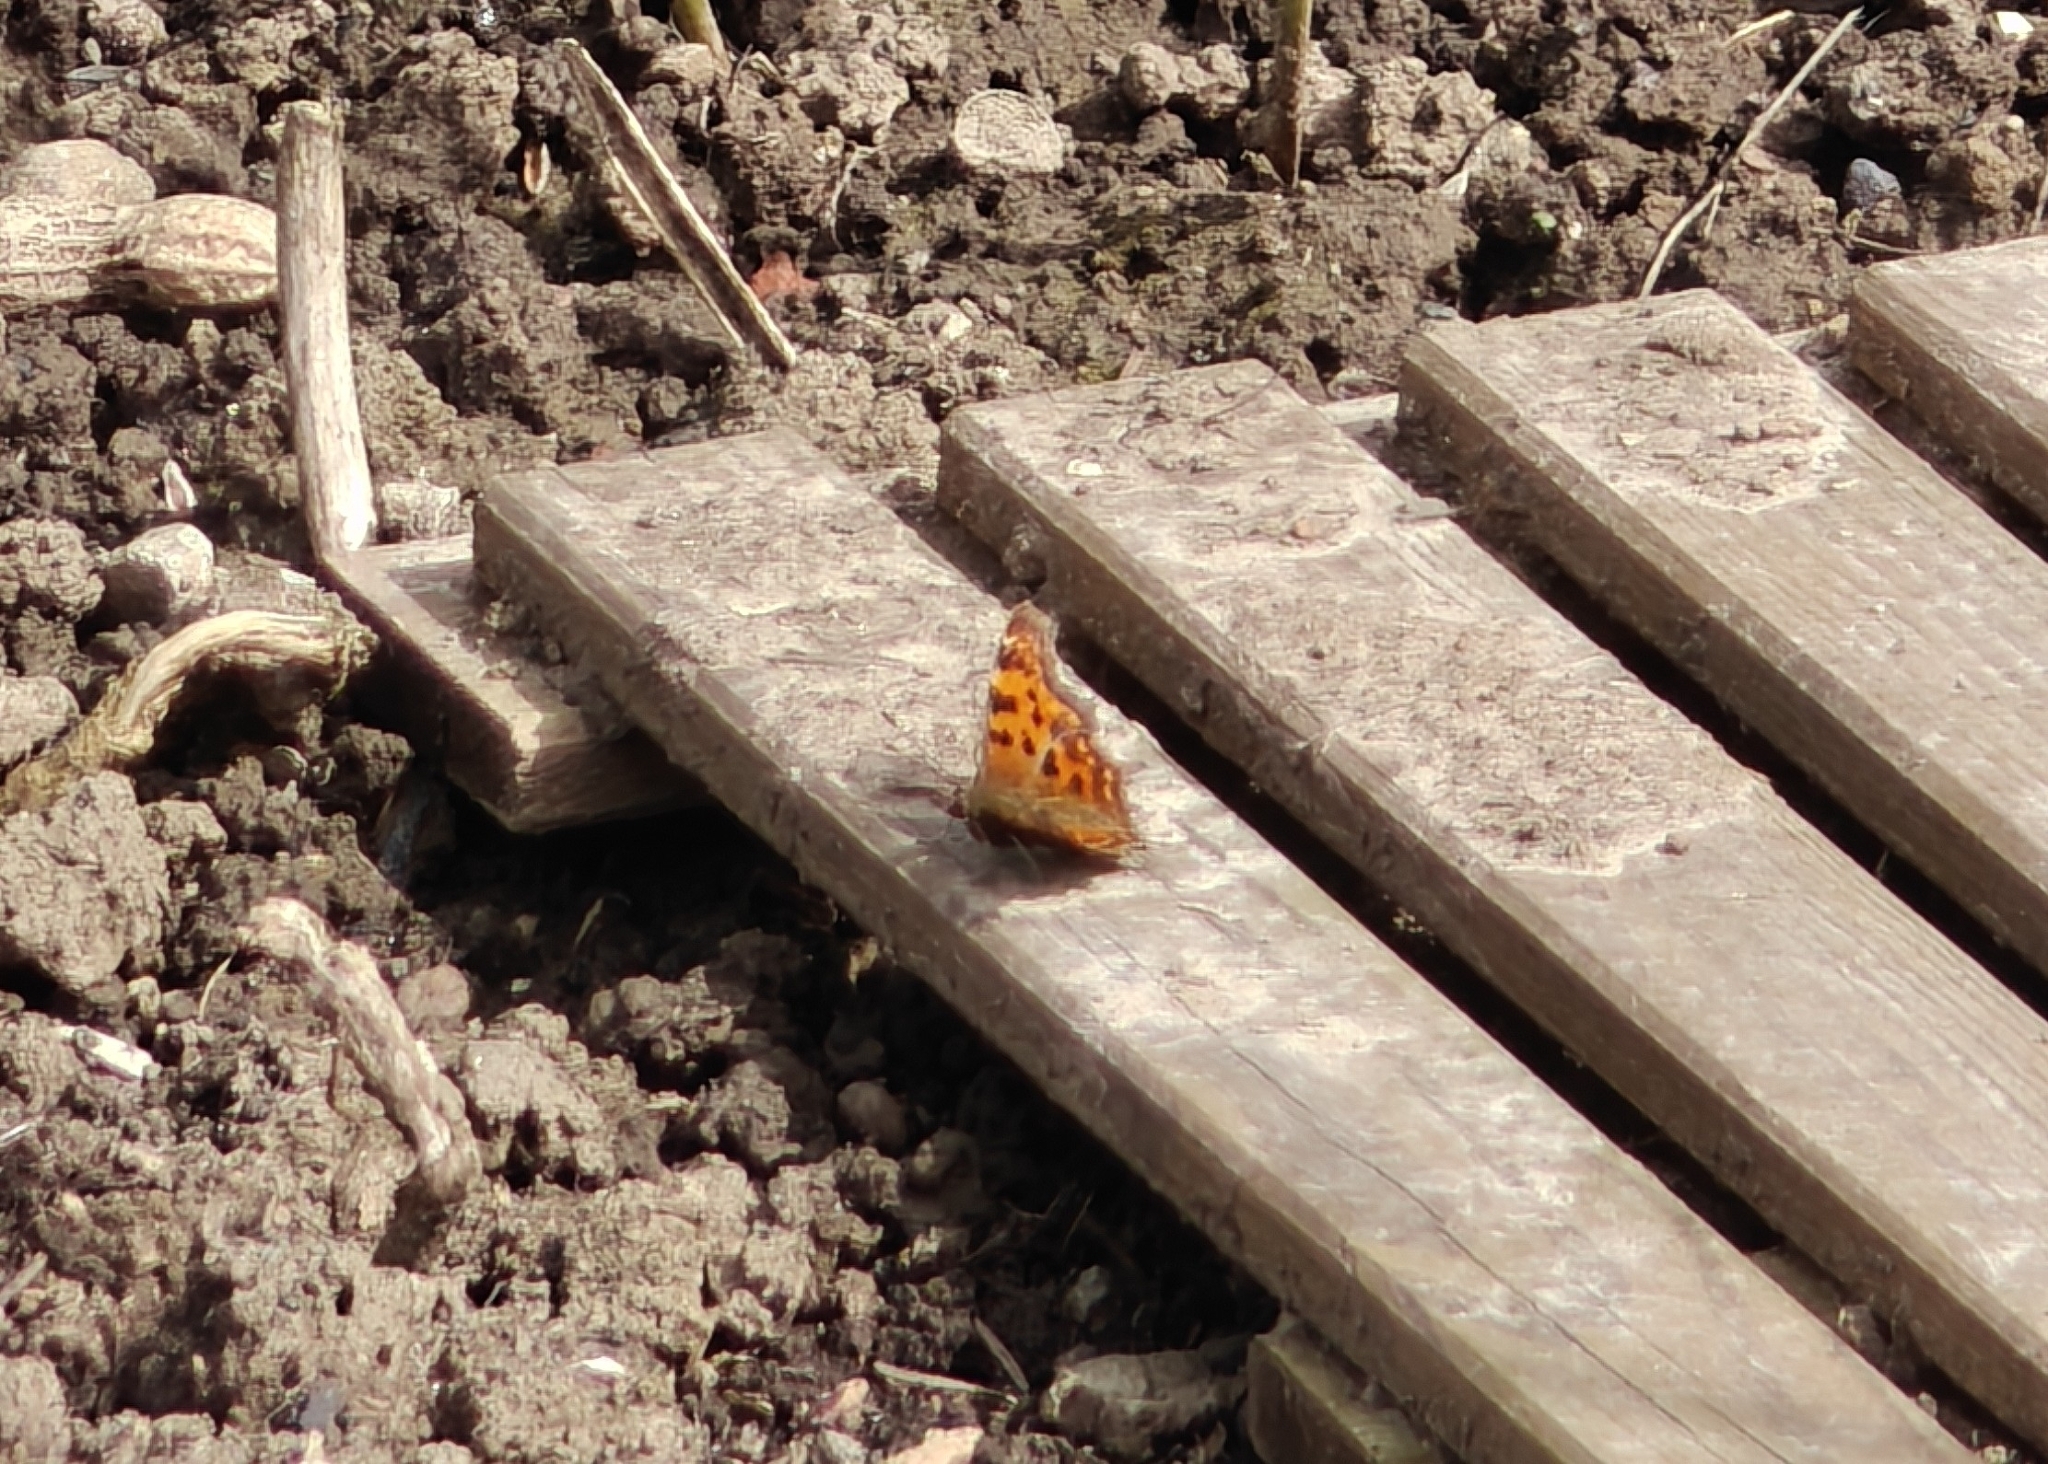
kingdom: Animalia
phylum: Arthropoda
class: Insecta
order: Lepidoptera
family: Nymphalidae
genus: Polygonia
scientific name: Polygonia c-album
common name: Comma
